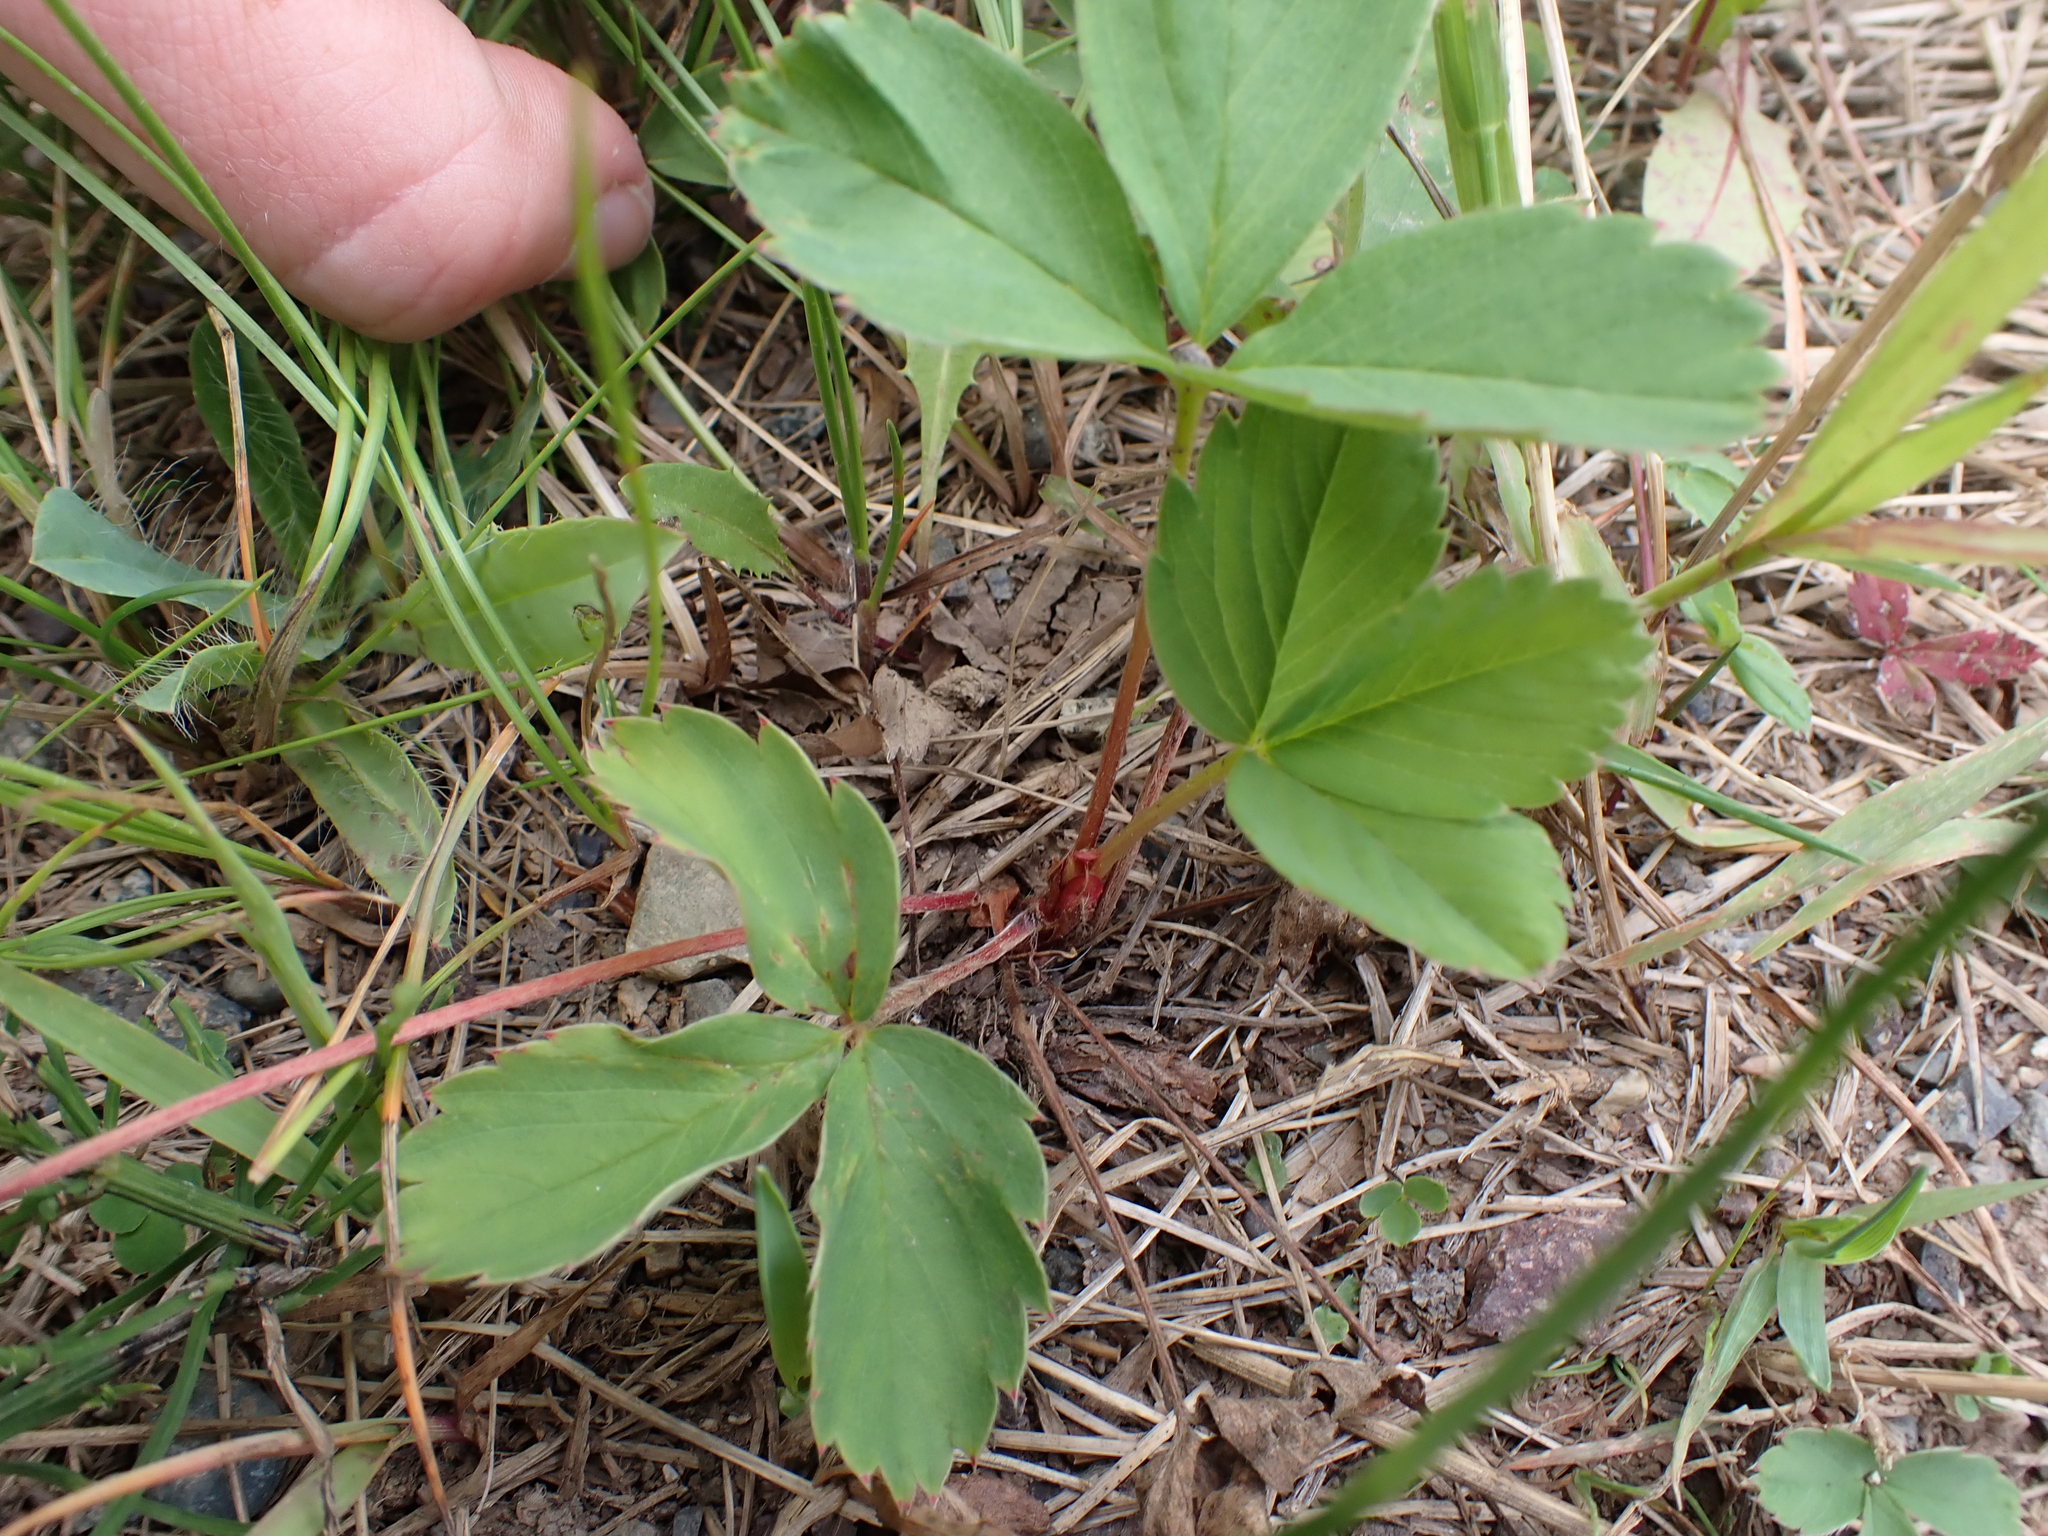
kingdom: Plantae
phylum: Tracheophyta
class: Magnoliopsida
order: Rosales
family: Rosaceae
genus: Fragaria
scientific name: Fragaria virginiana
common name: Thickleaved wild strawberry
